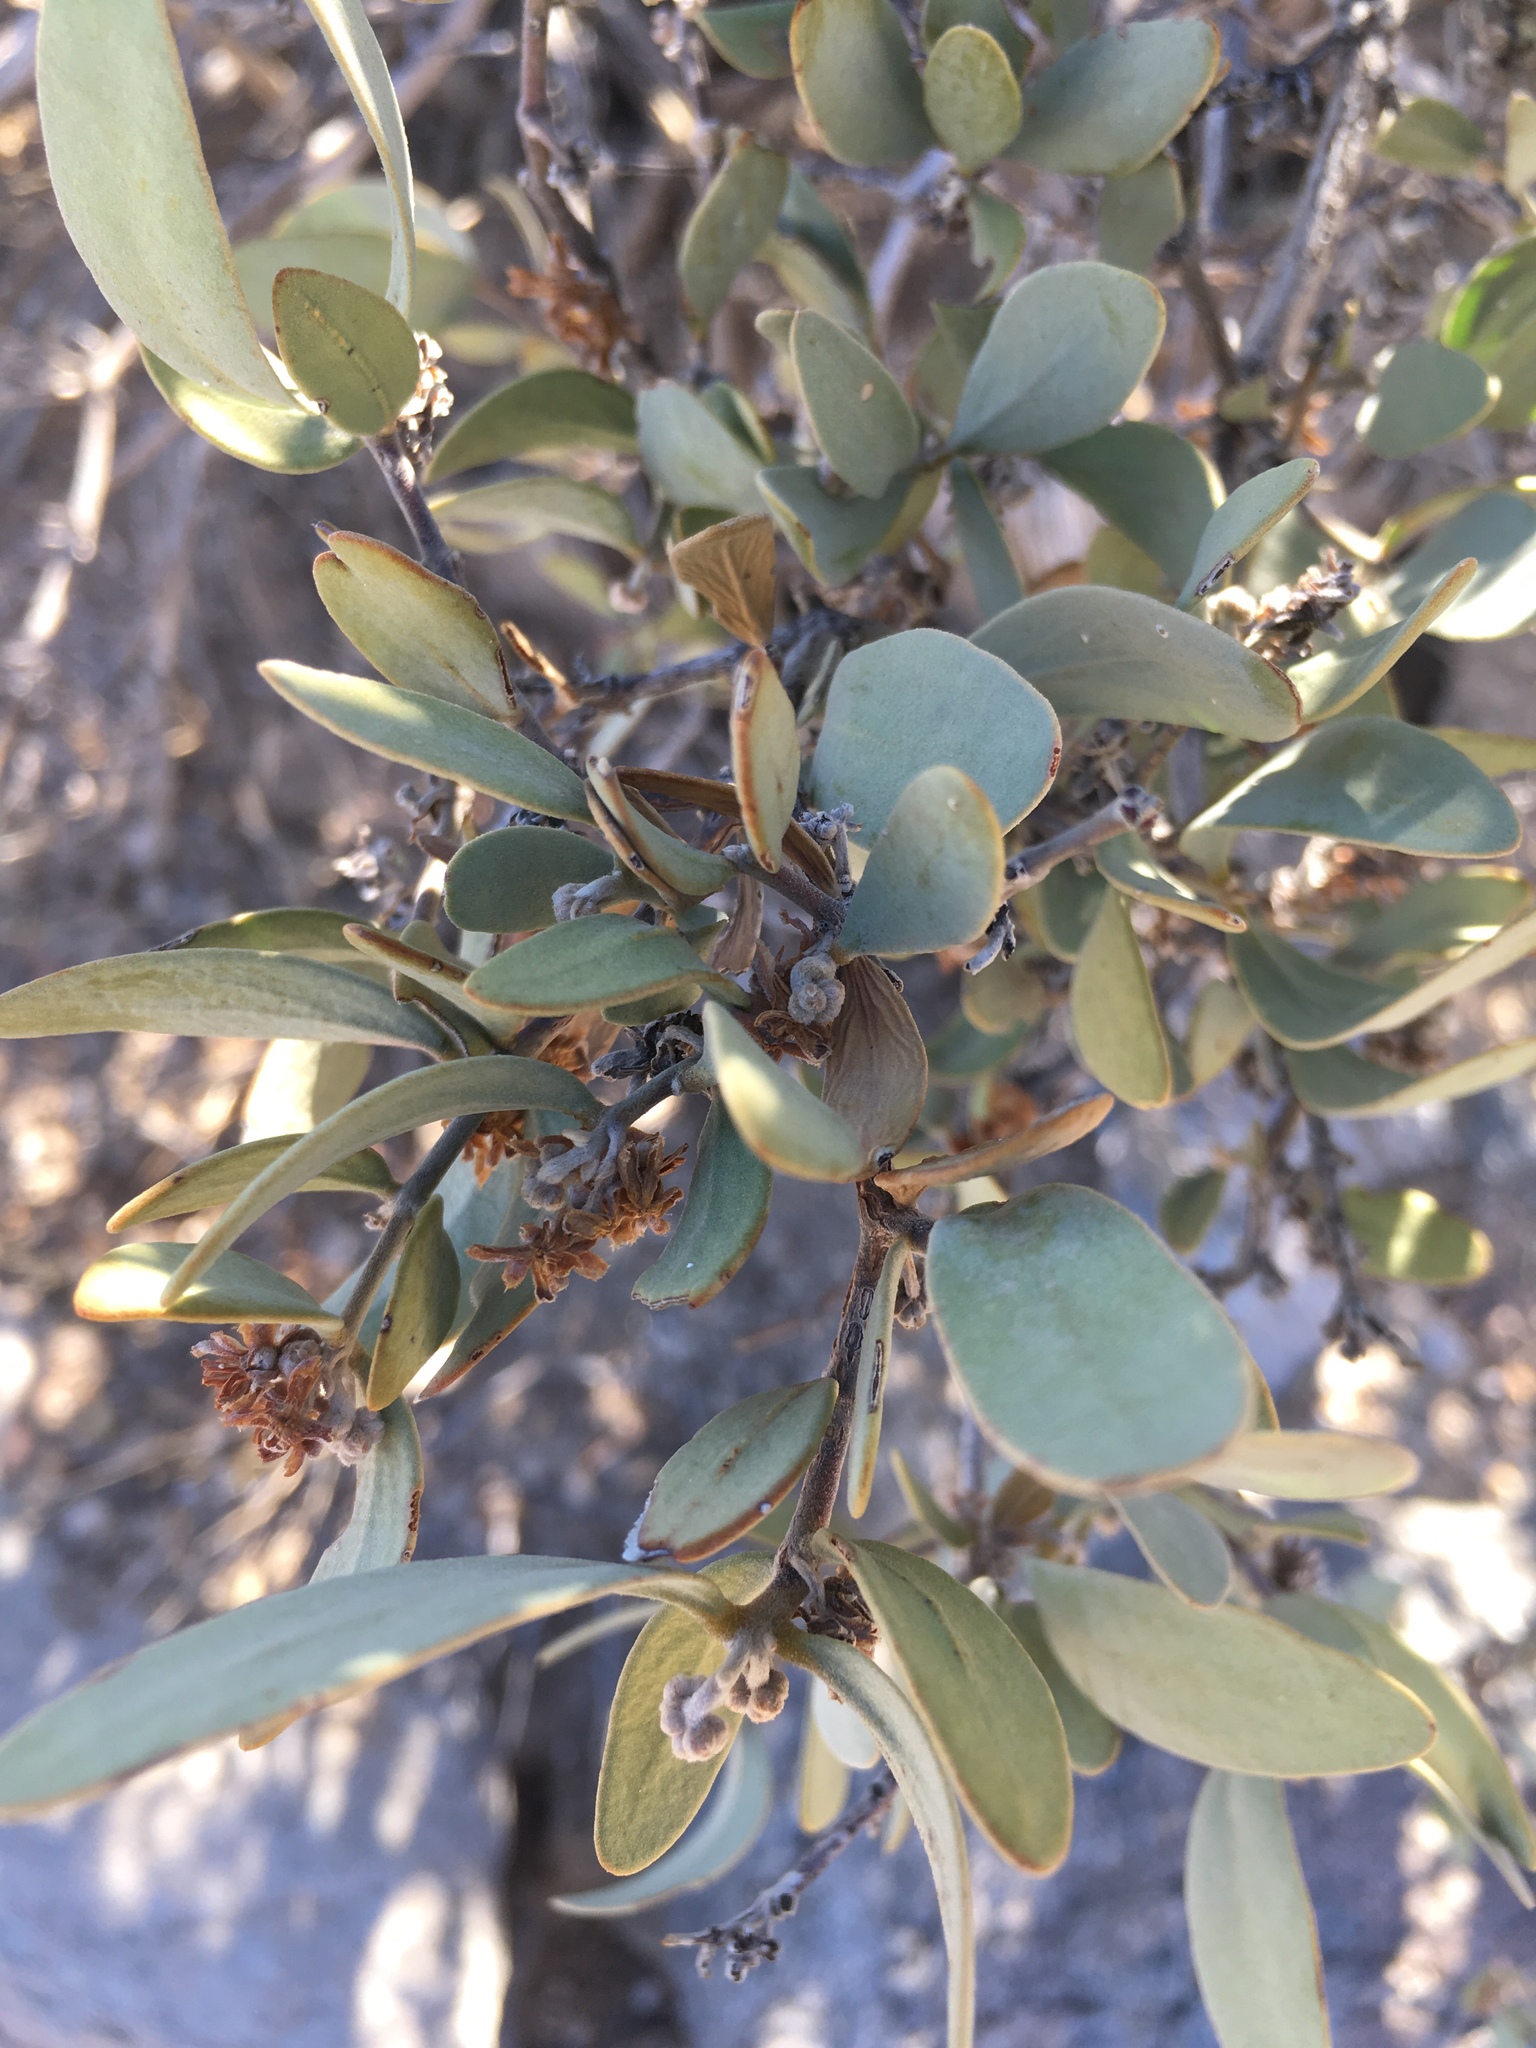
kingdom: Plantae
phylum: Tracheophyta
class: Magnoliopsida
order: Caryophyllales
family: Simmondsiaceae
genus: Simmondsia
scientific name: Simmondsia chinensis
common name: Jojoba
